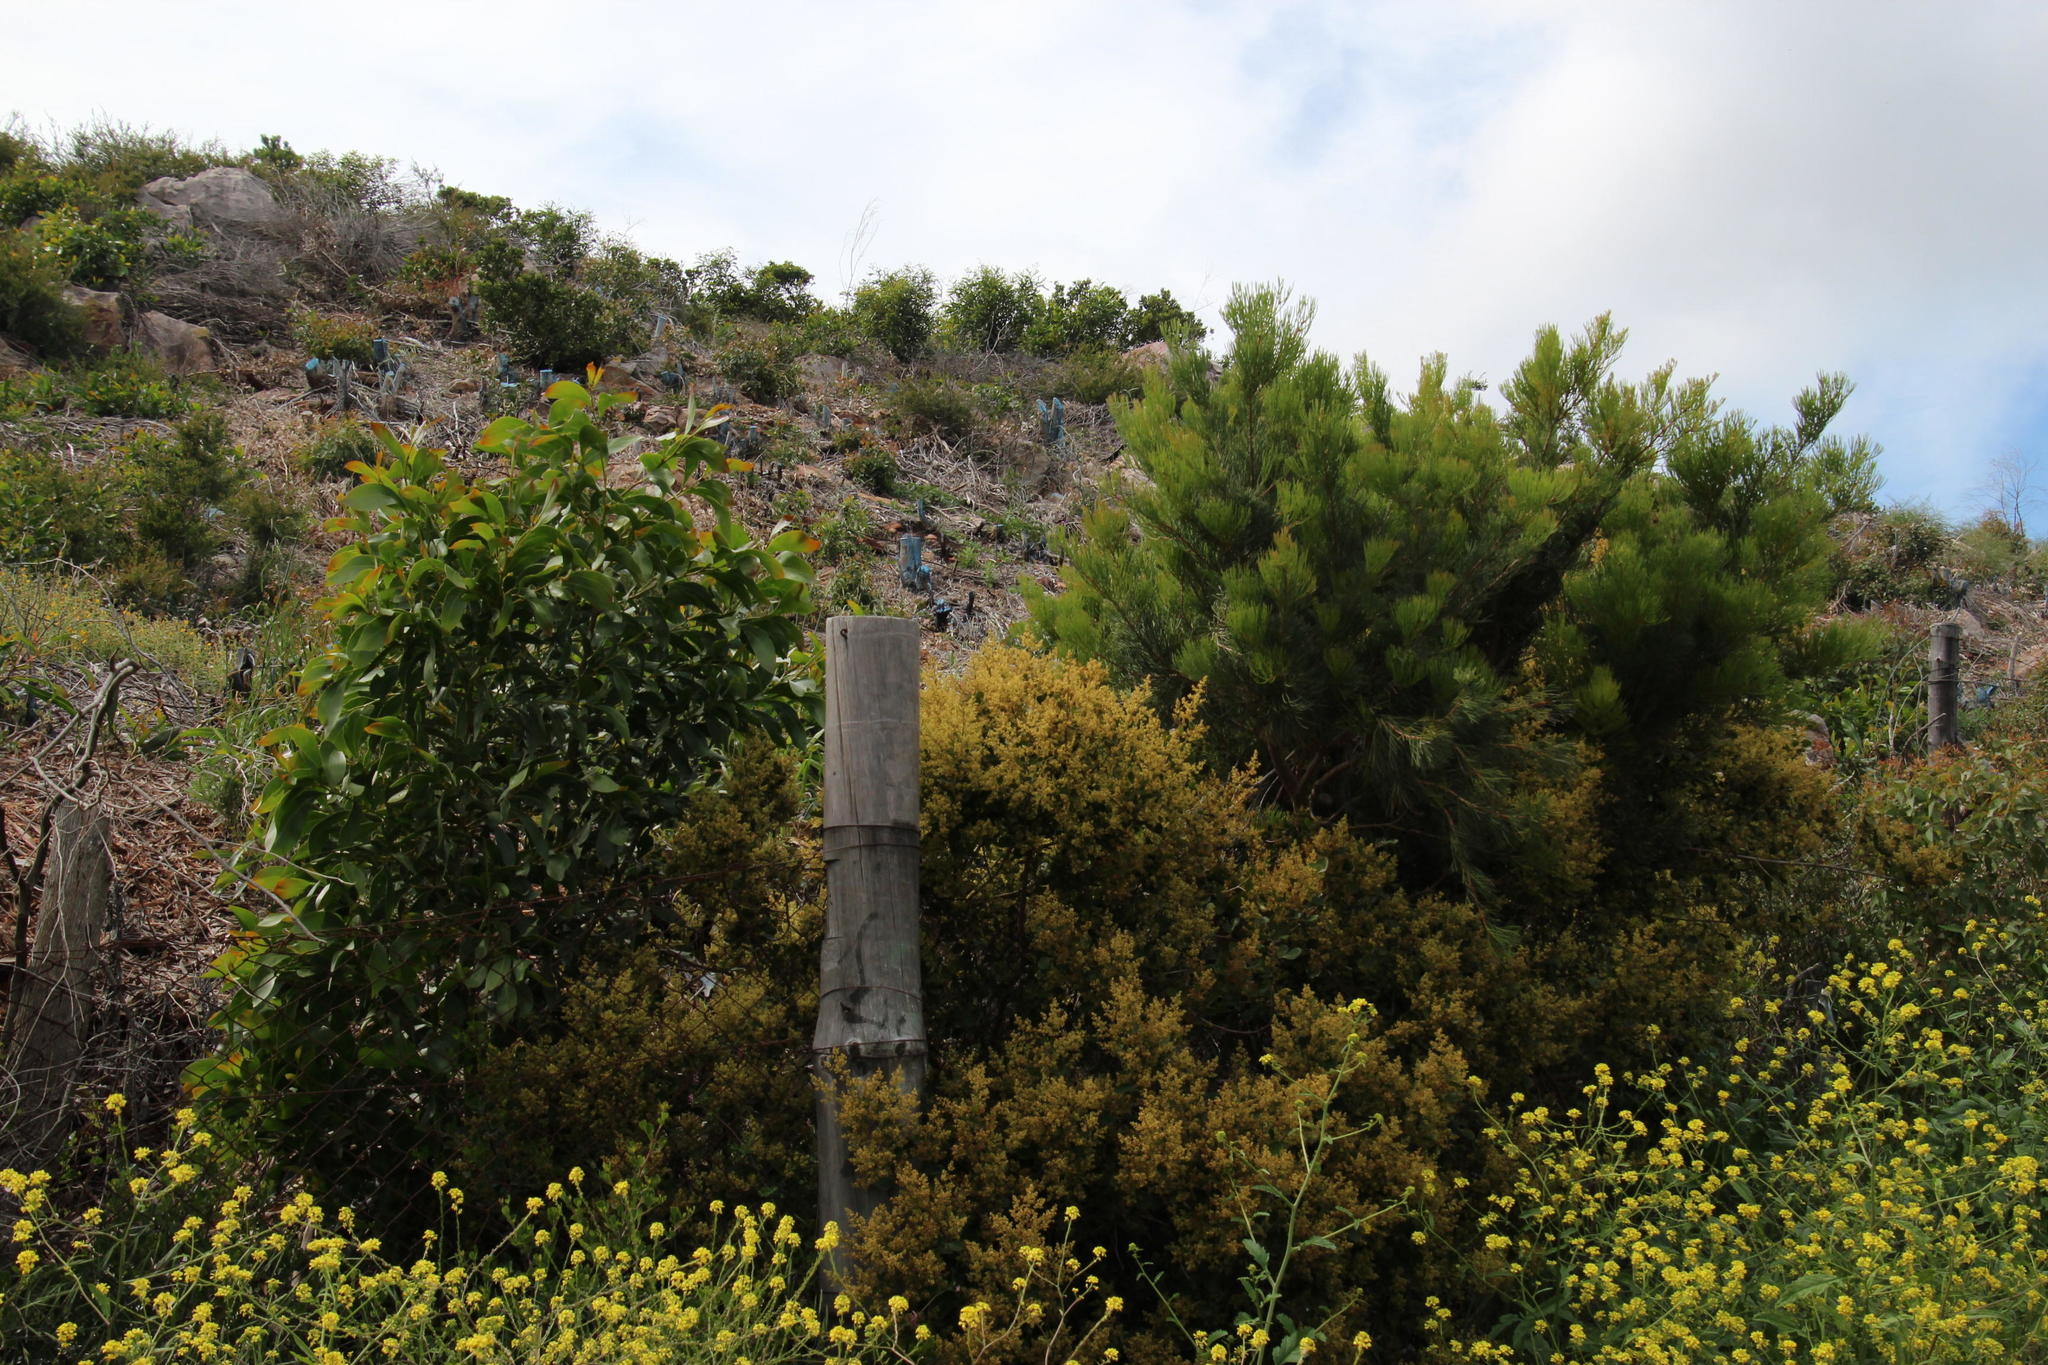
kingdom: Plantae
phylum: Tracheophyta
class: Magnoliopsida
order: Proteales
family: Proteaceae
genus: Hakea
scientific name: Hakea drupacea
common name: Sweet hakea
